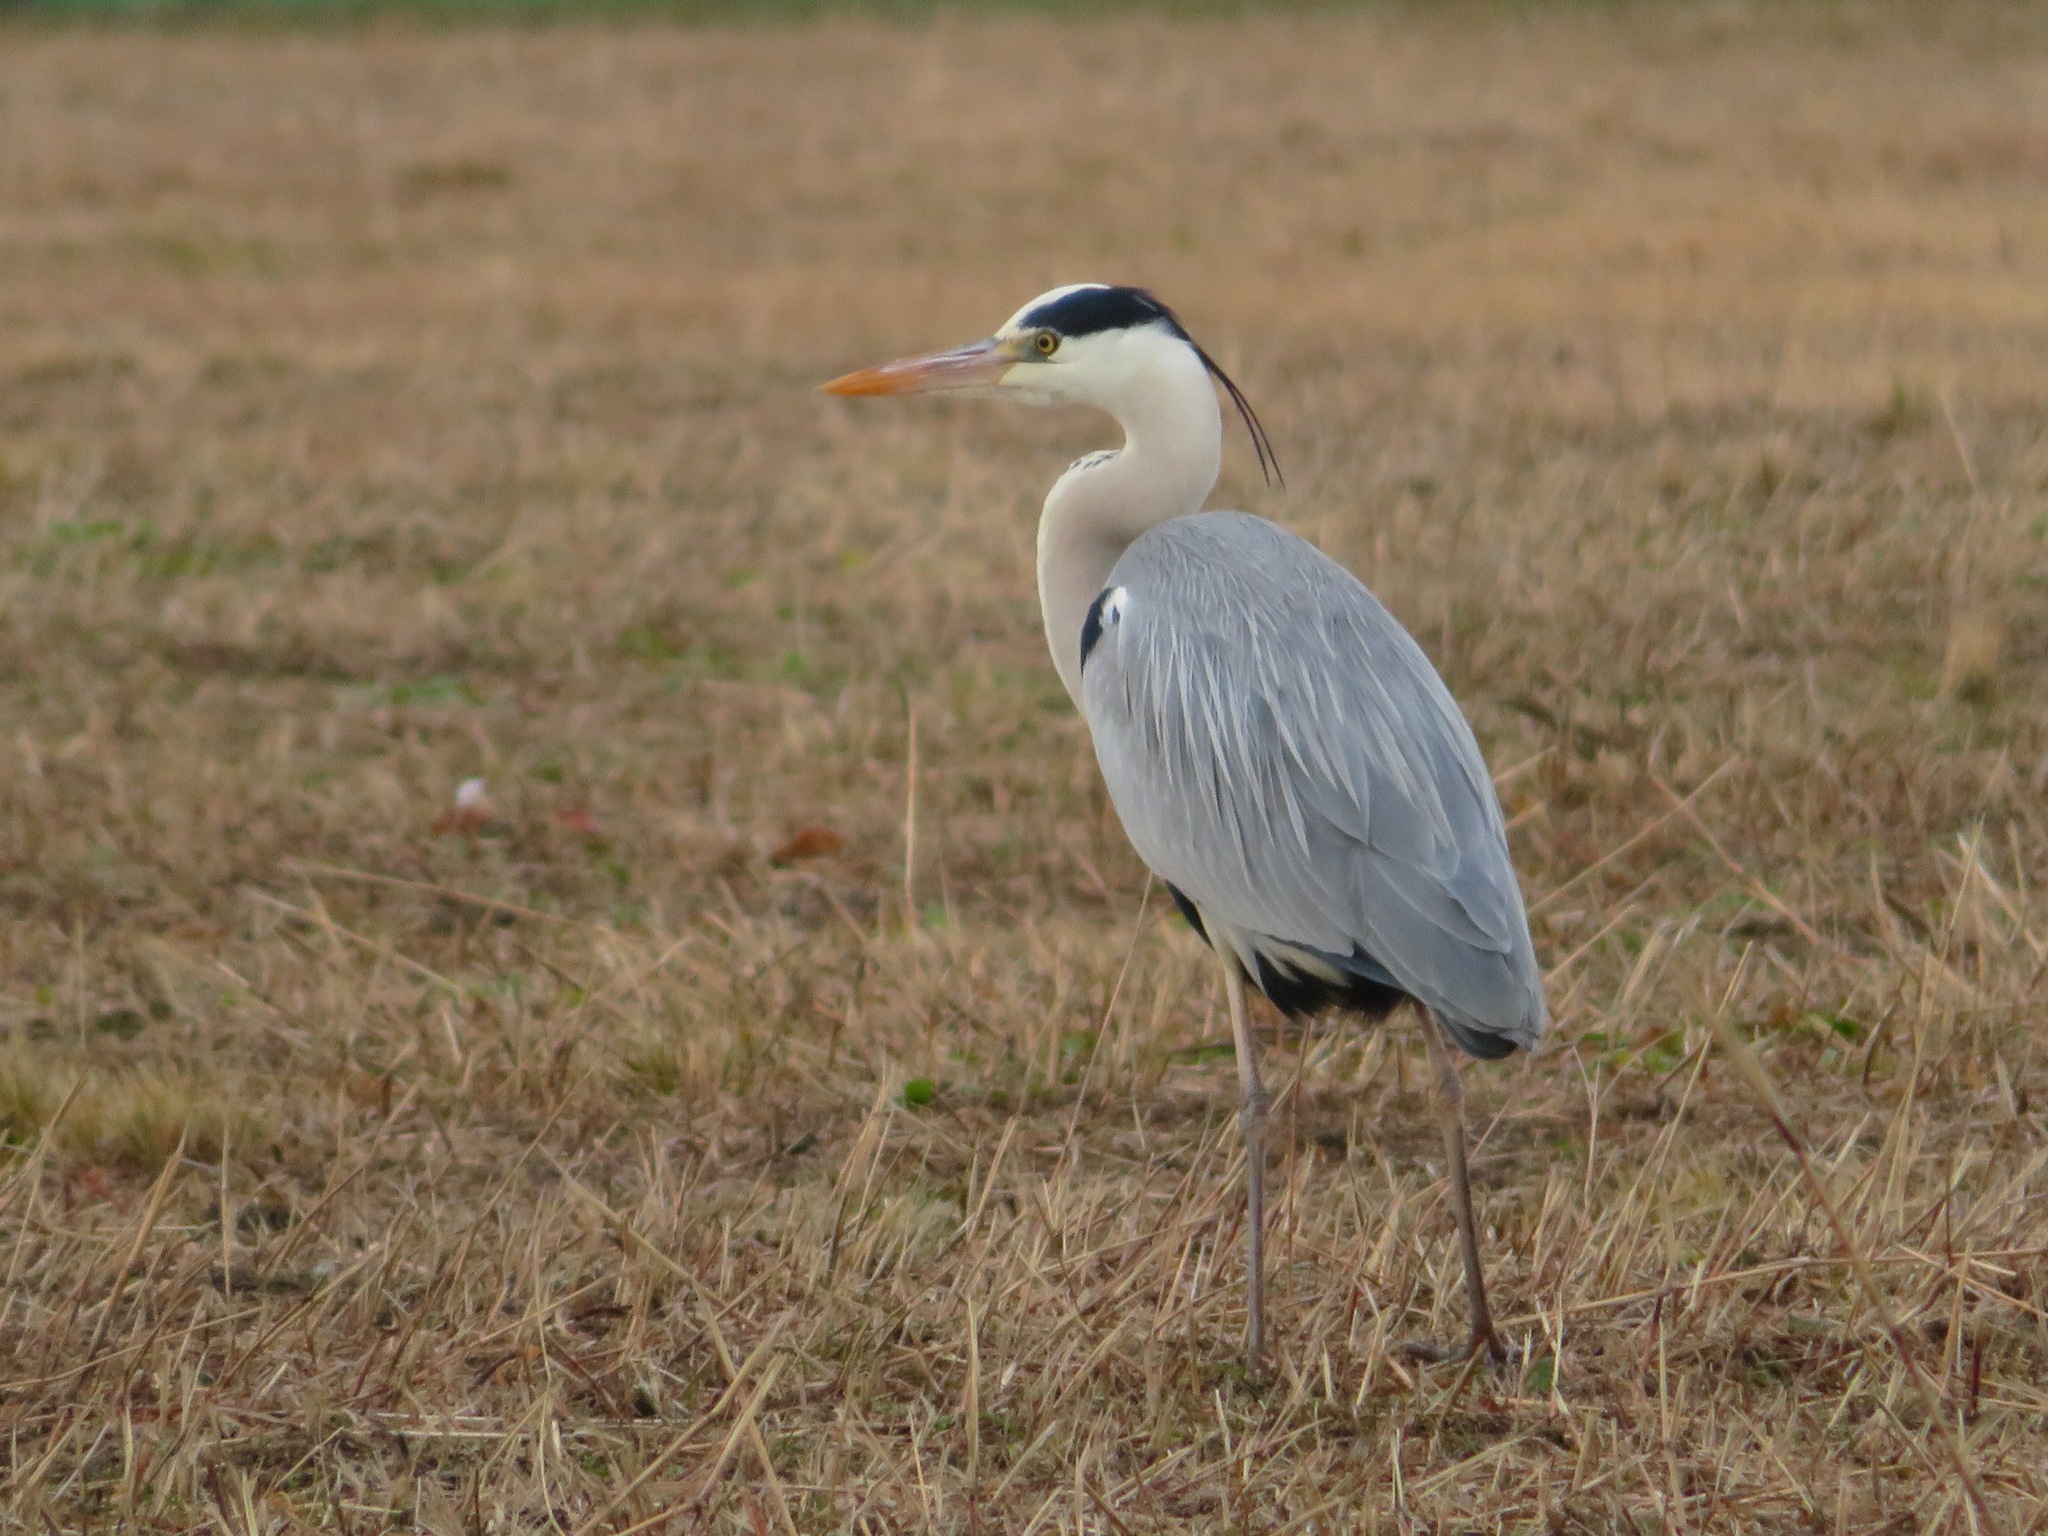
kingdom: Animalia
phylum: Chordata
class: Aves
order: Pelecaniformes
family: Ardeidae
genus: Ardea
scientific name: Ardea cinerea
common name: Grey heron
